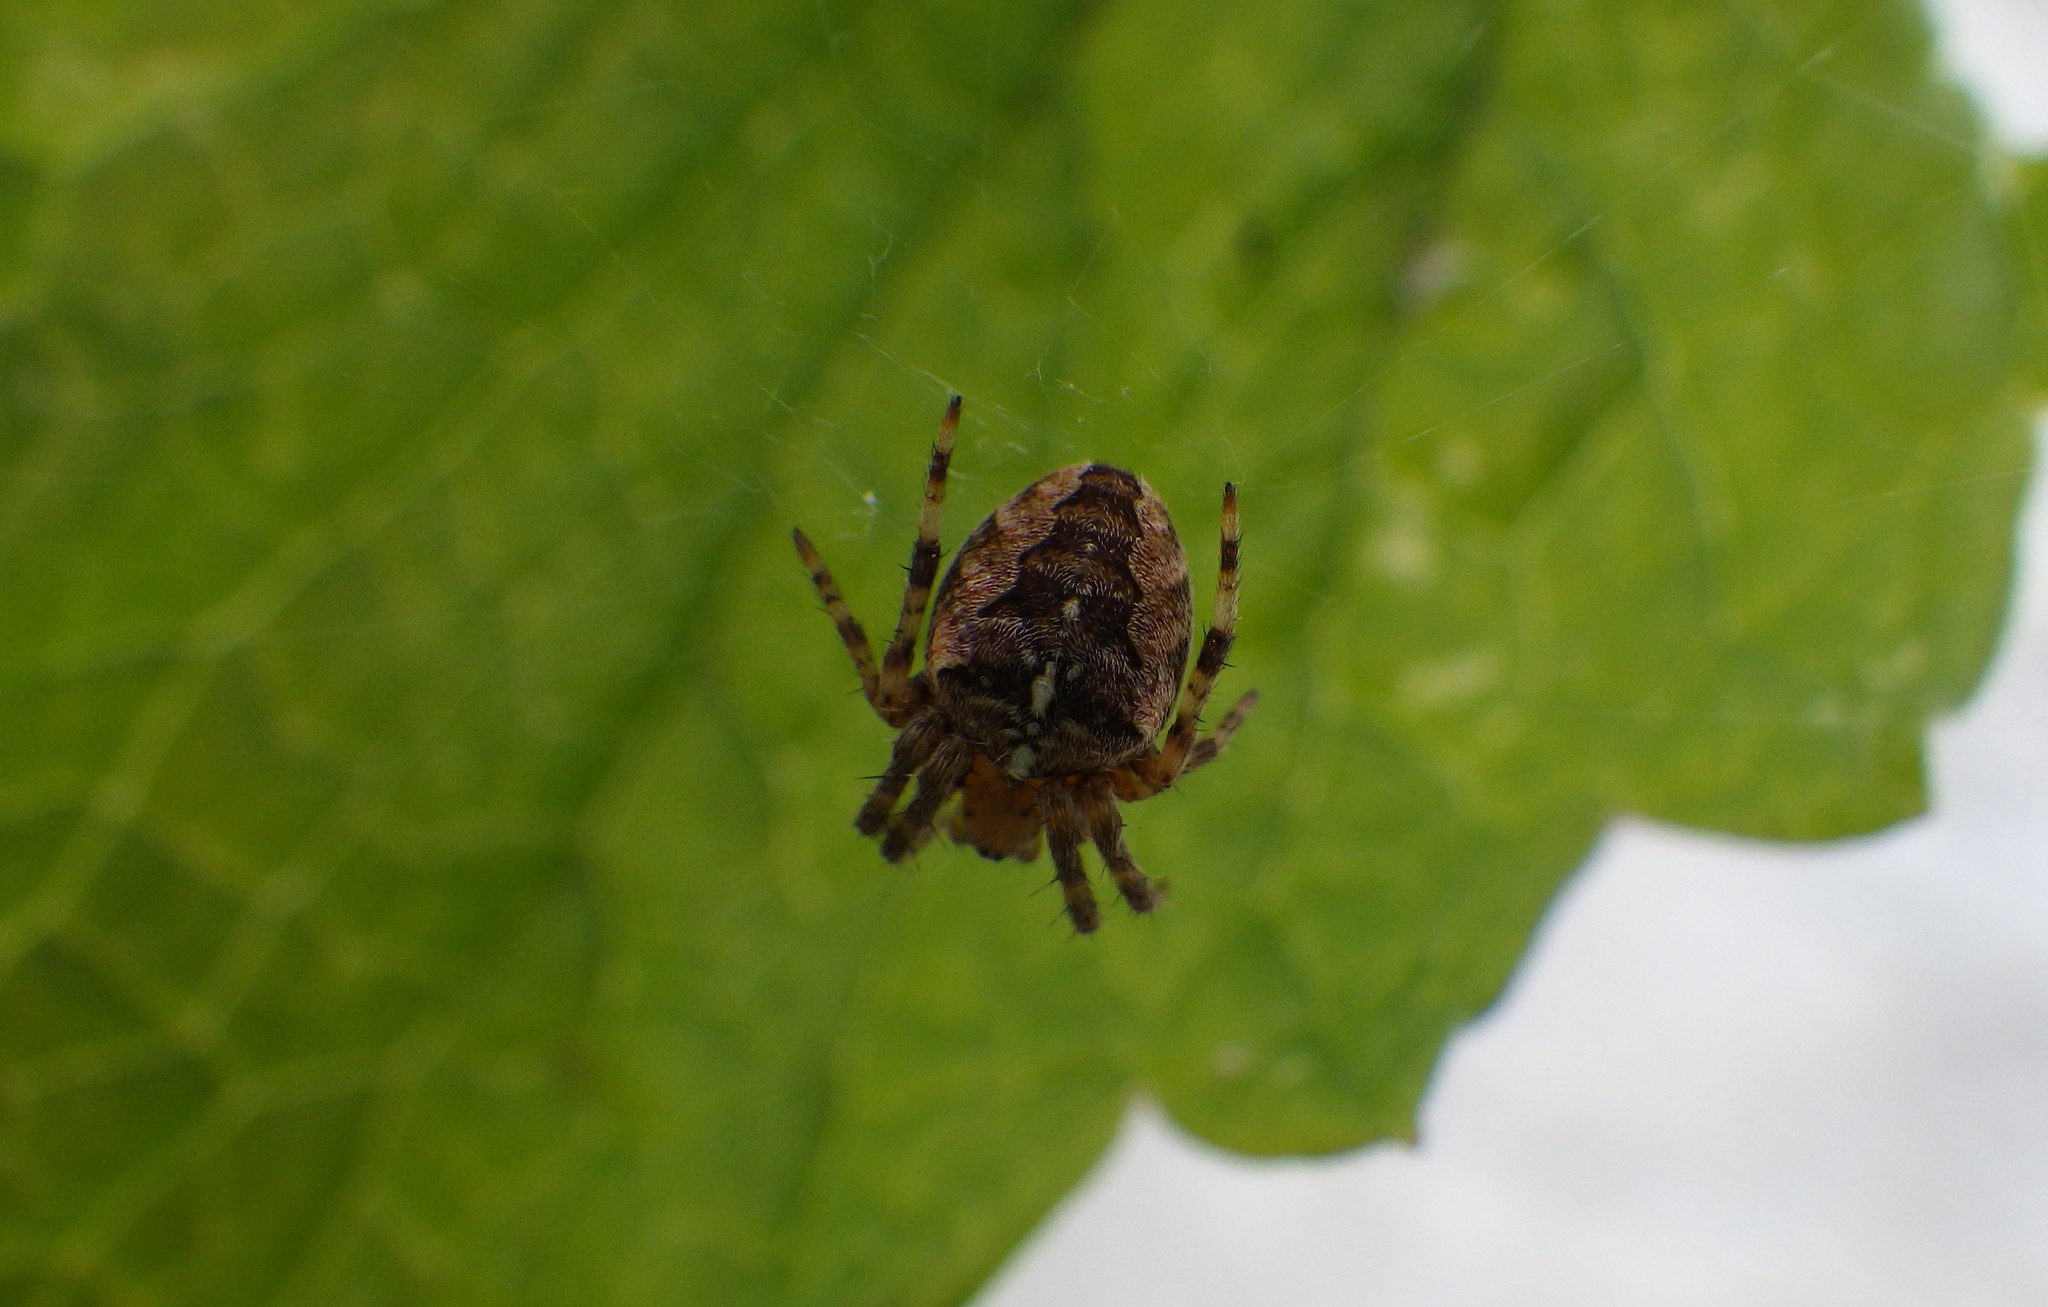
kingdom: Animalia
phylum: Arthropoda
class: Arachnida
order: Araneae
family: Araneidae
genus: Araneus
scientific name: Araneus diadematus
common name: Cross orbweaver
